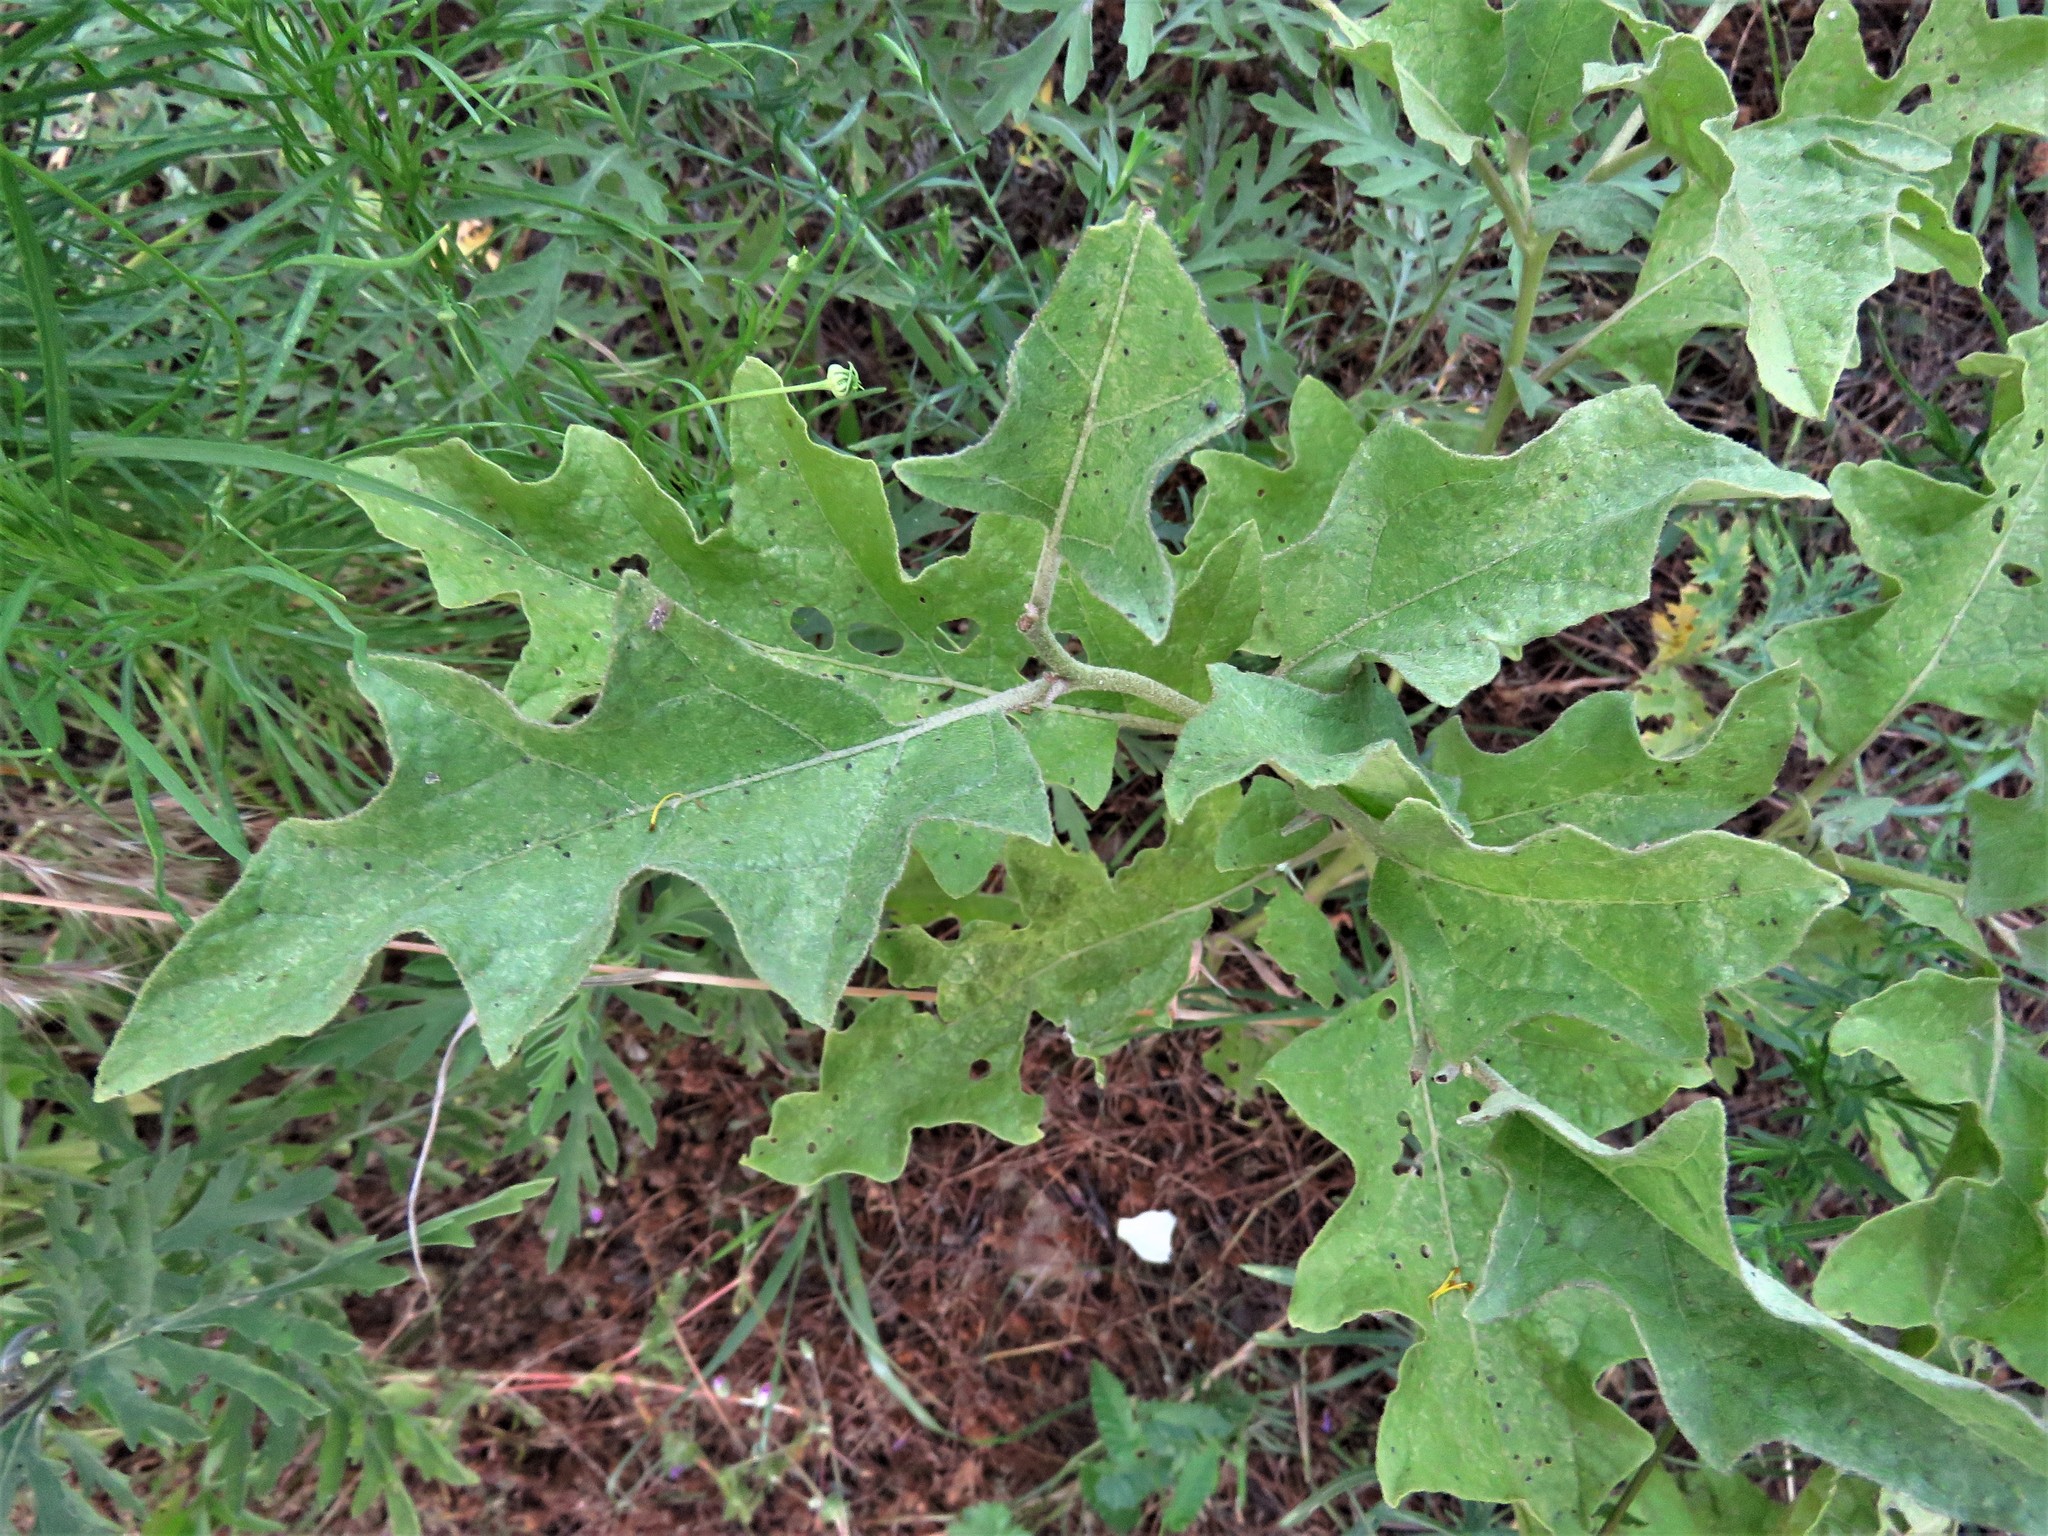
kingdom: Plantae
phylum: Tracheophyta
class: Magnoliopsida
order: Solanales
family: Solanaceae
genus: Solanum
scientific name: Solanum dimidiatum
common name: Carolina horse-nettle
